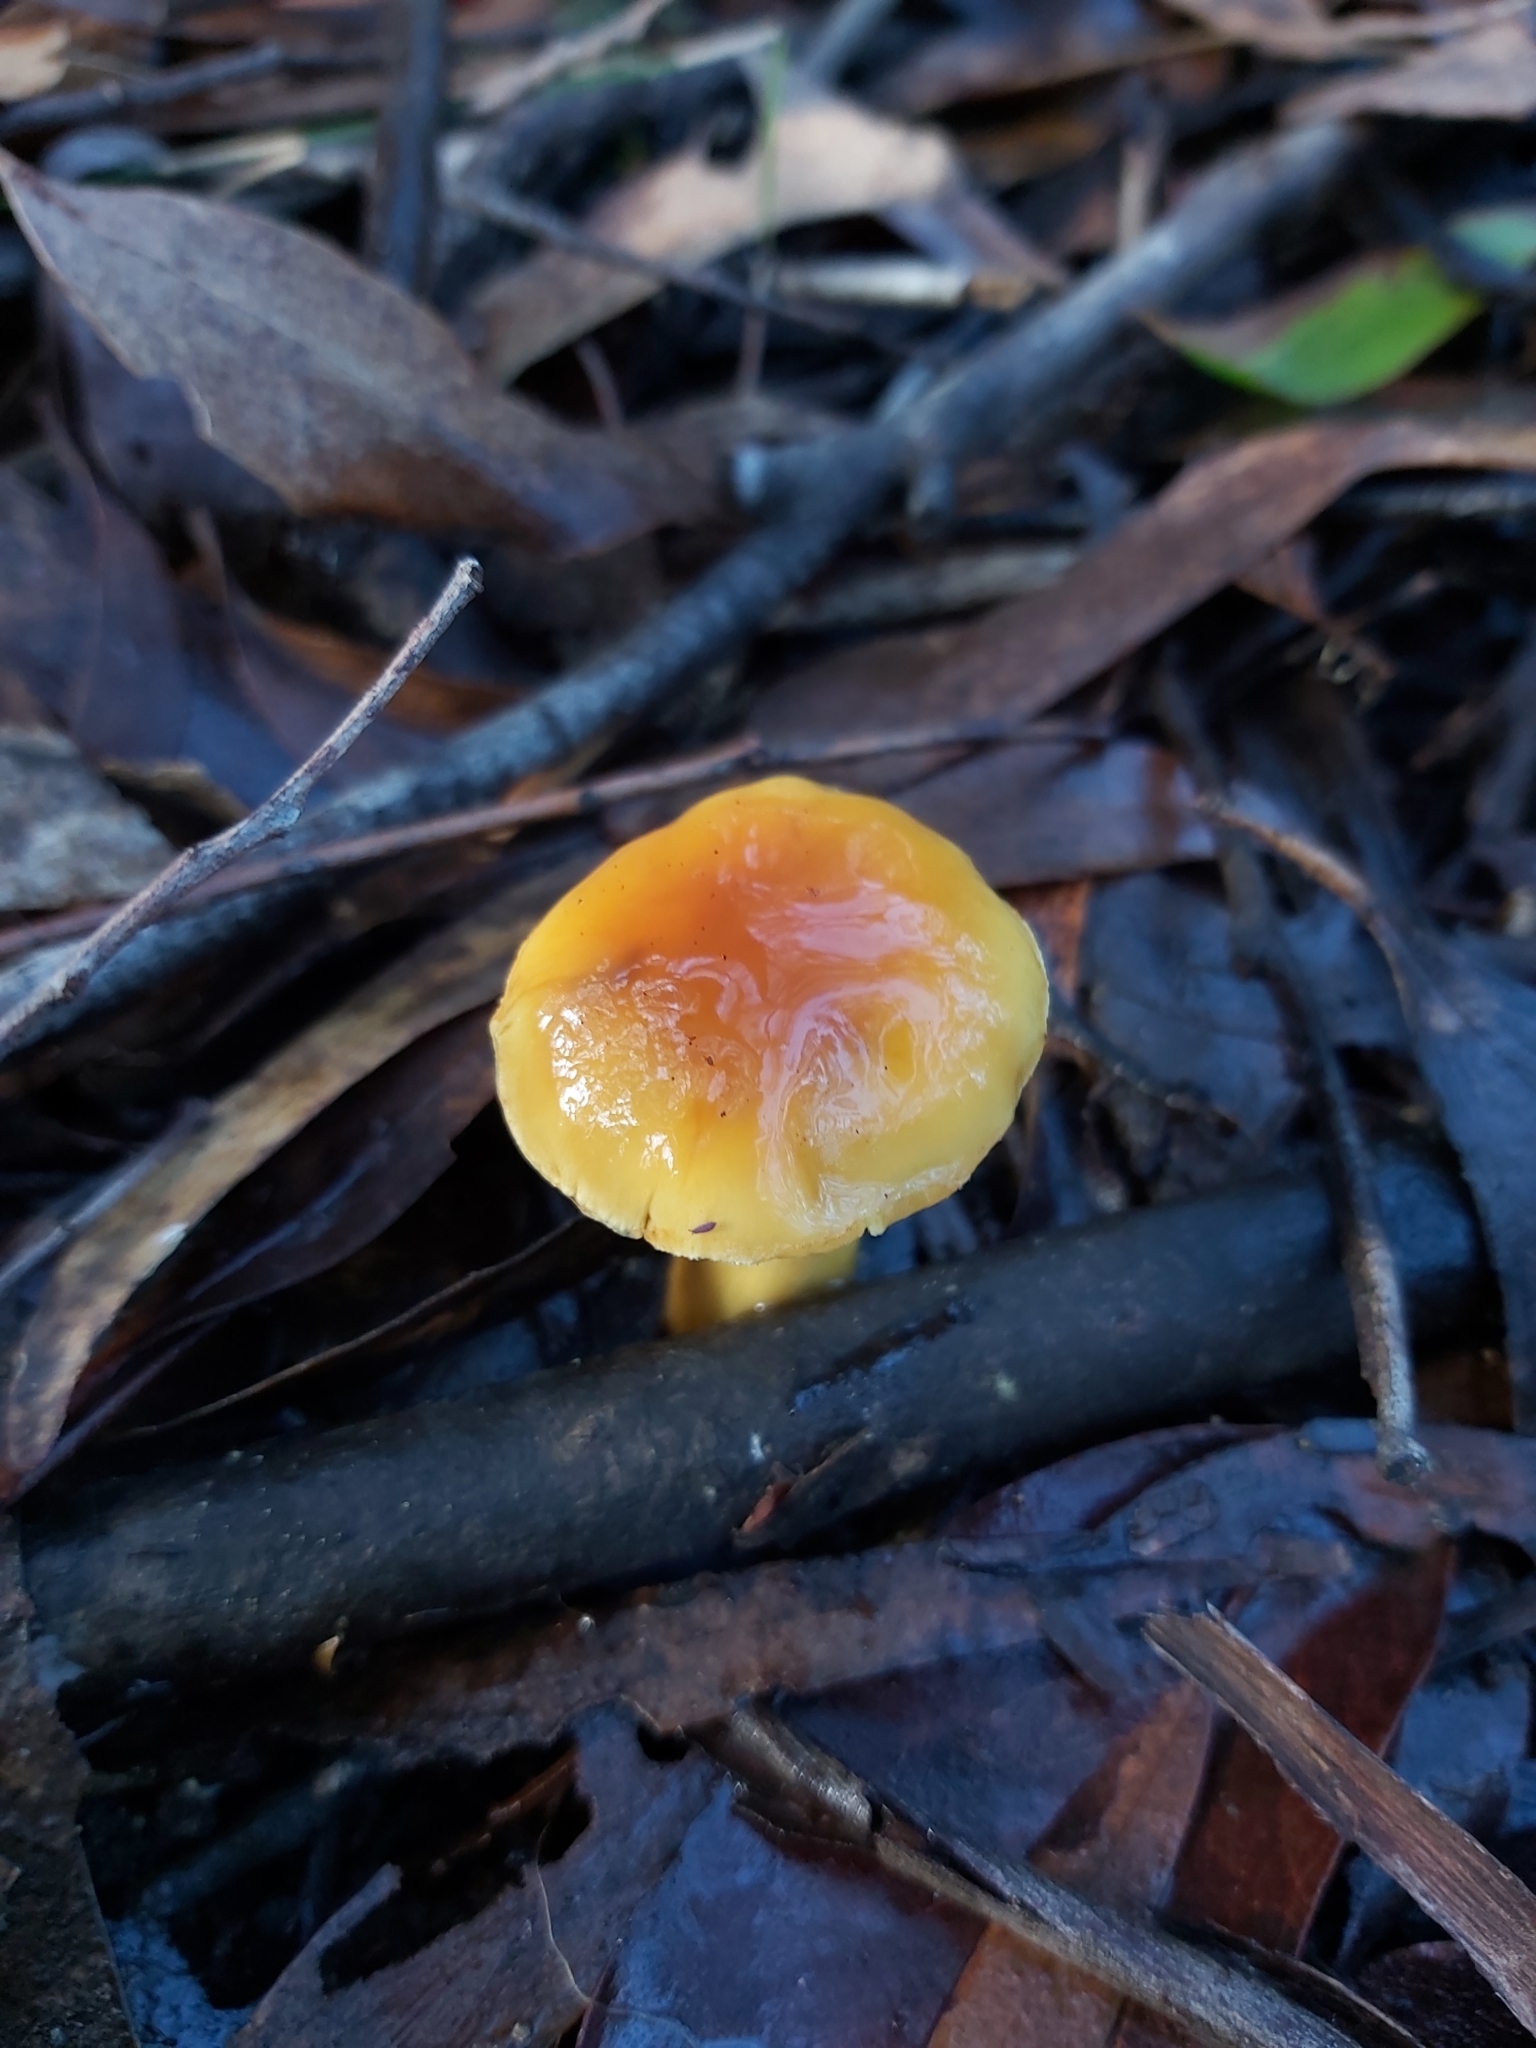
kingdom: Fungi
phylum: Basidiomycota
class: Agaricomycetes
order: Agaricales
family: Cortinariaceae
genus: Cortinarius
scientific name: Cortinarius sinapicolor
